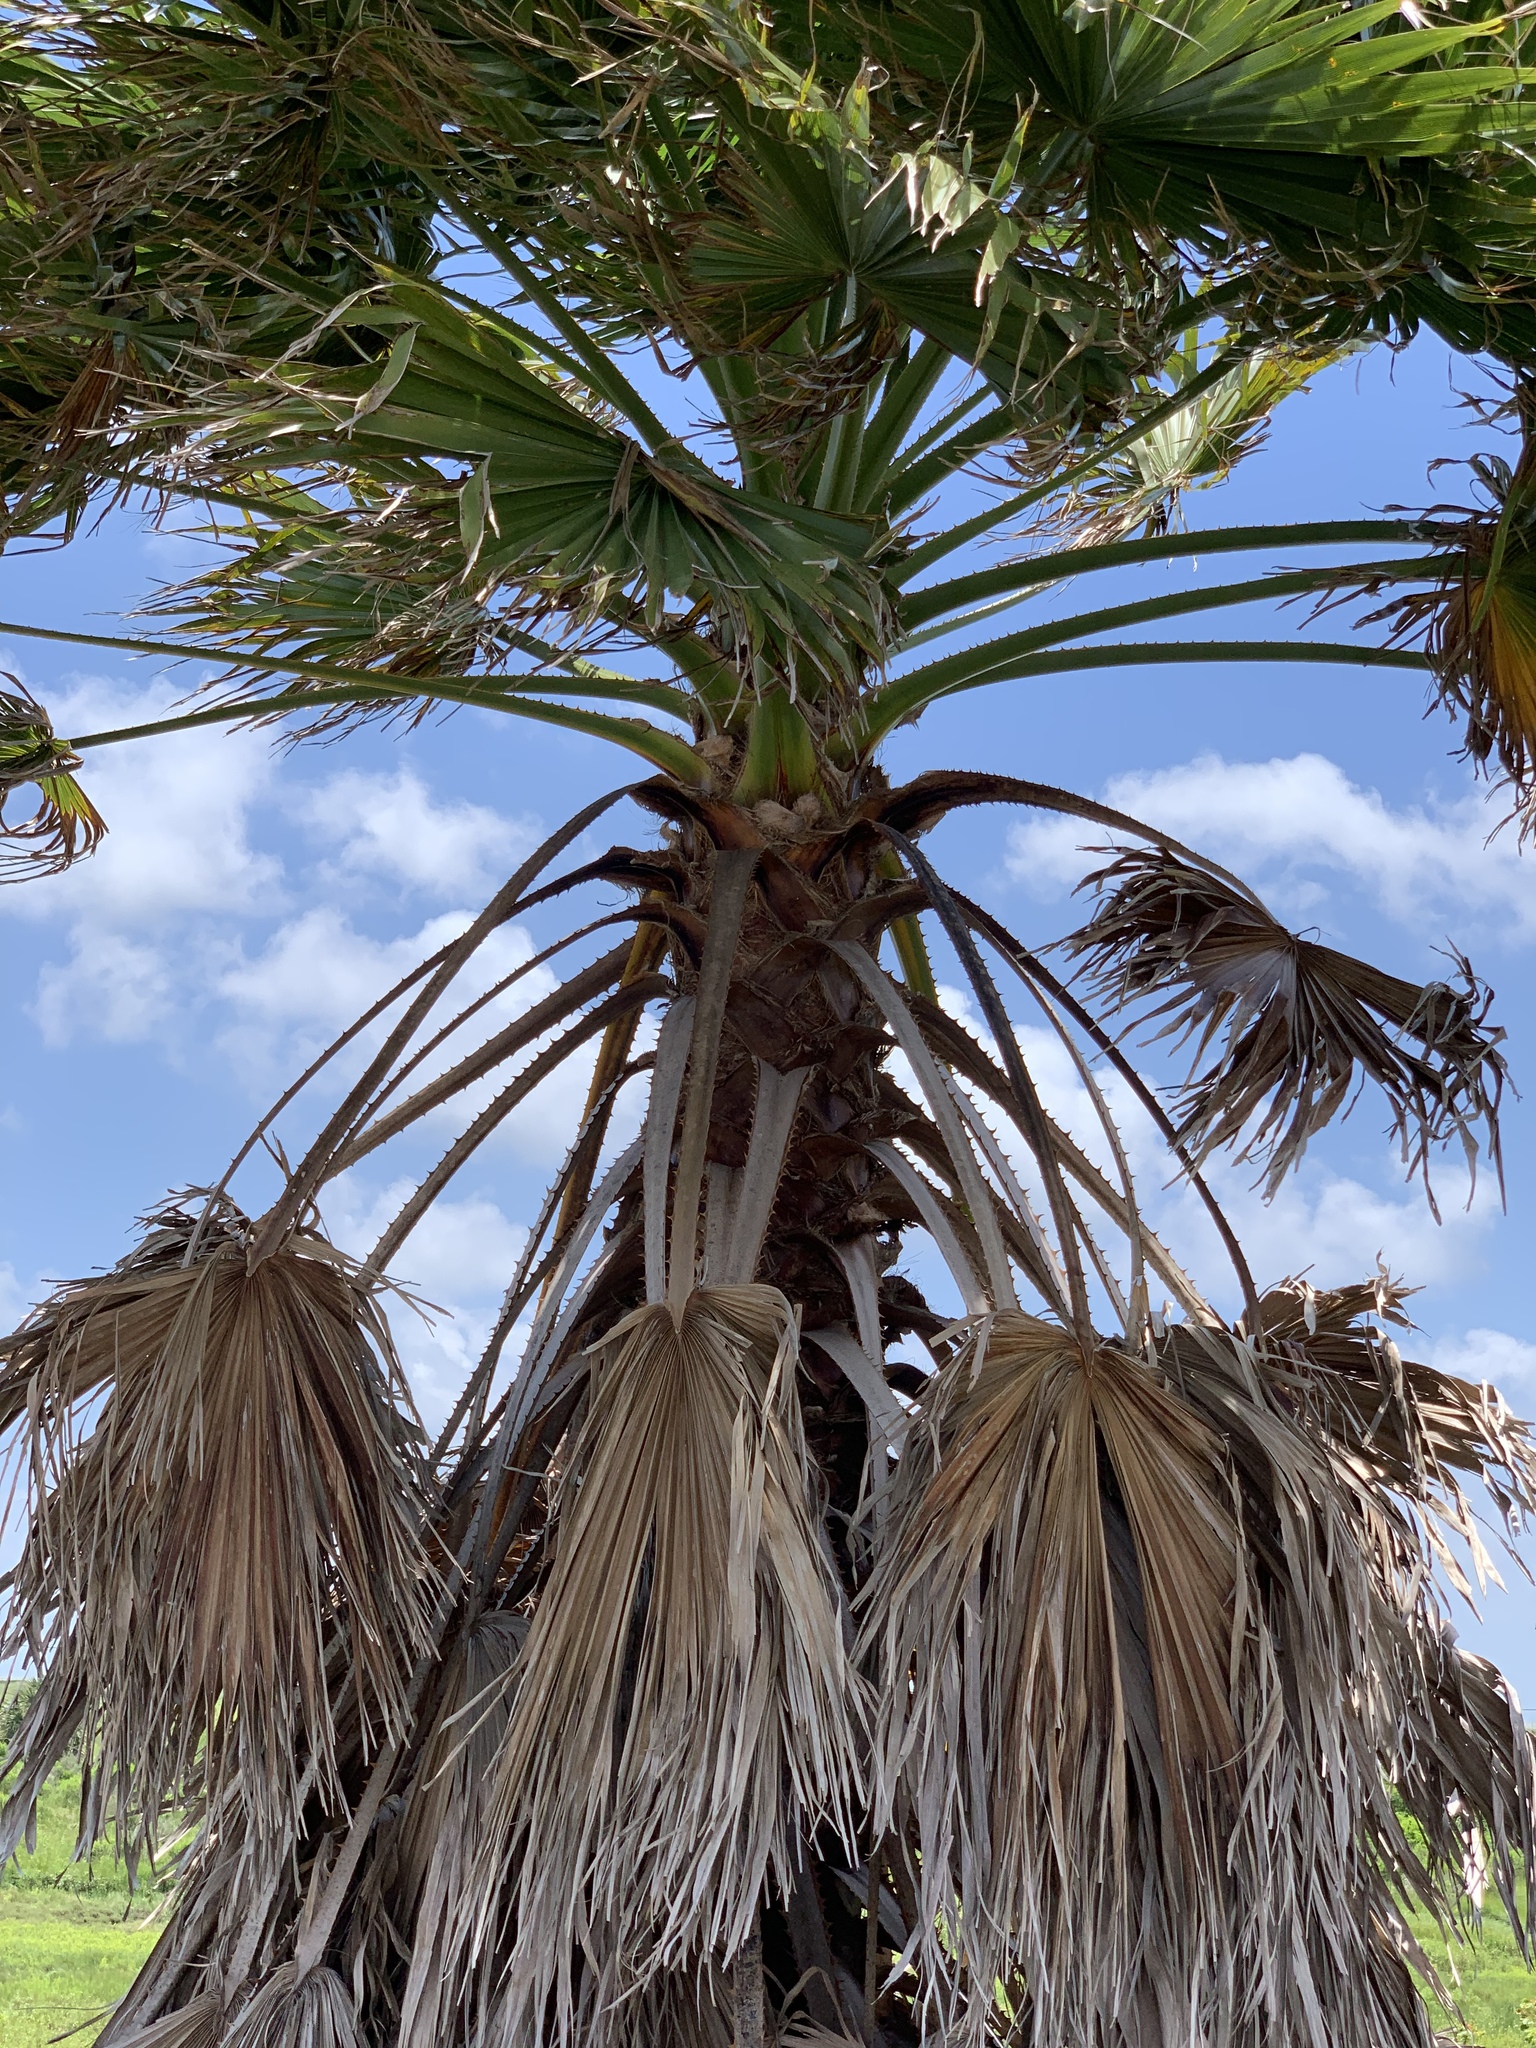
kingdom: Plantae
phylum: Tracheophyta
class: Liliopsida
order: Arecales
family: Arecaceae
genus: Washingtonia
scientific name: Washingtonia robusta
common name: Mexican fan palm
